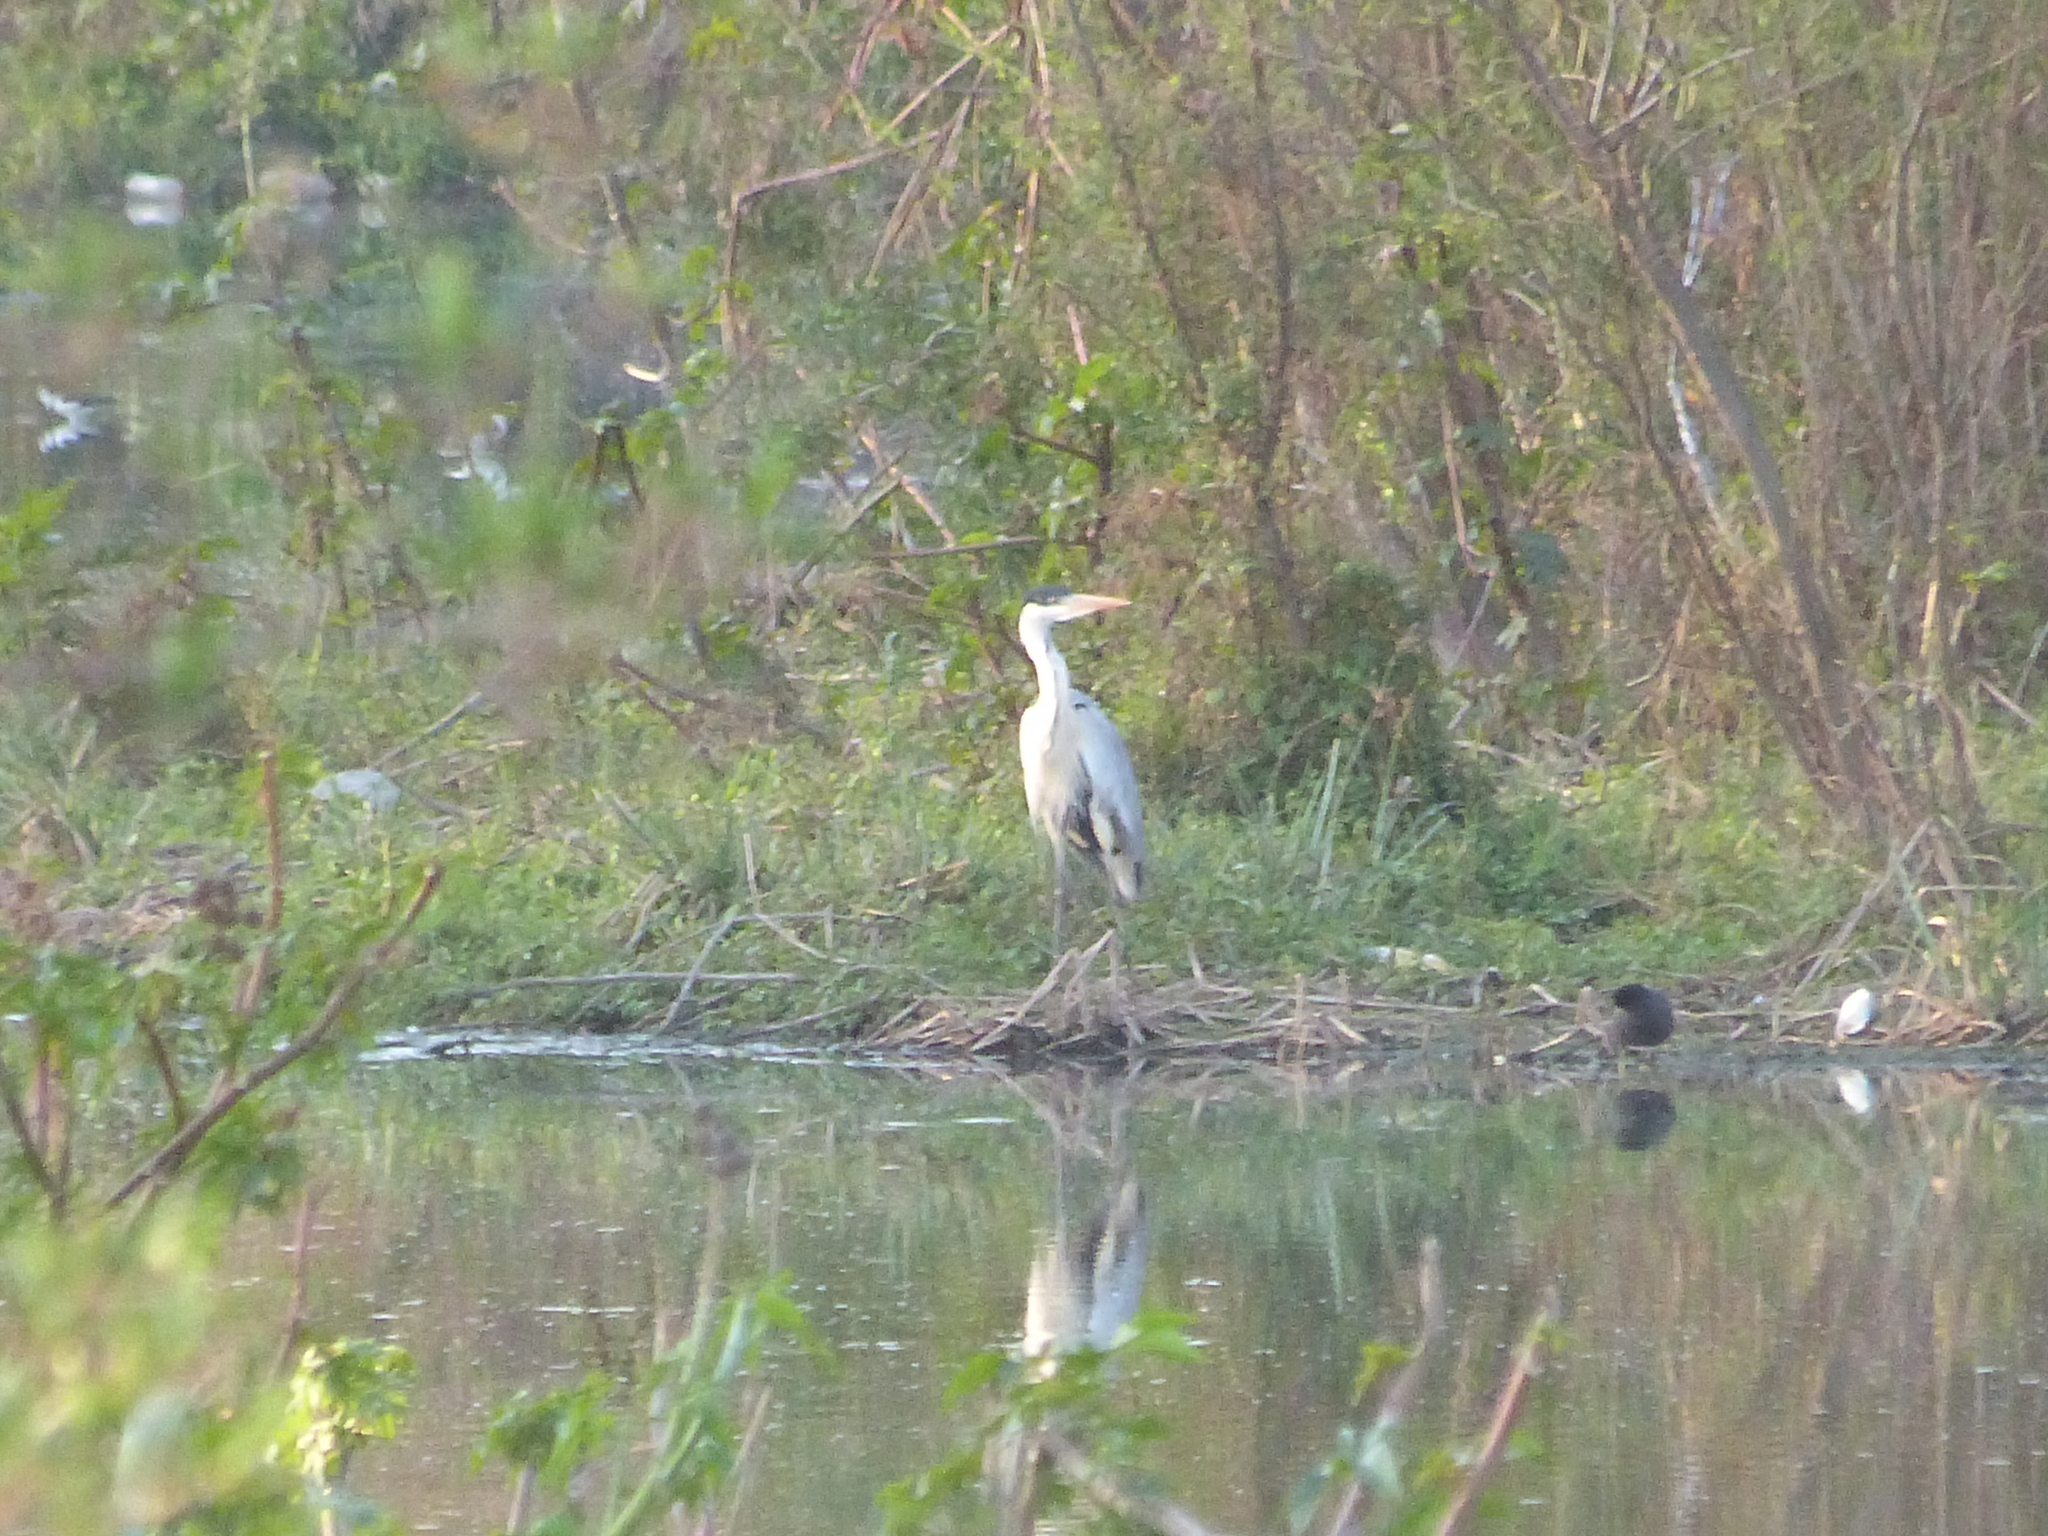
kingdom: Animalia
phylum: Chordata
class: Aves
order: Pelecaniformes
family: Ardeidae
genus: Ardea
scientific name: Ardea cocoi
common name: Cocoi heron
